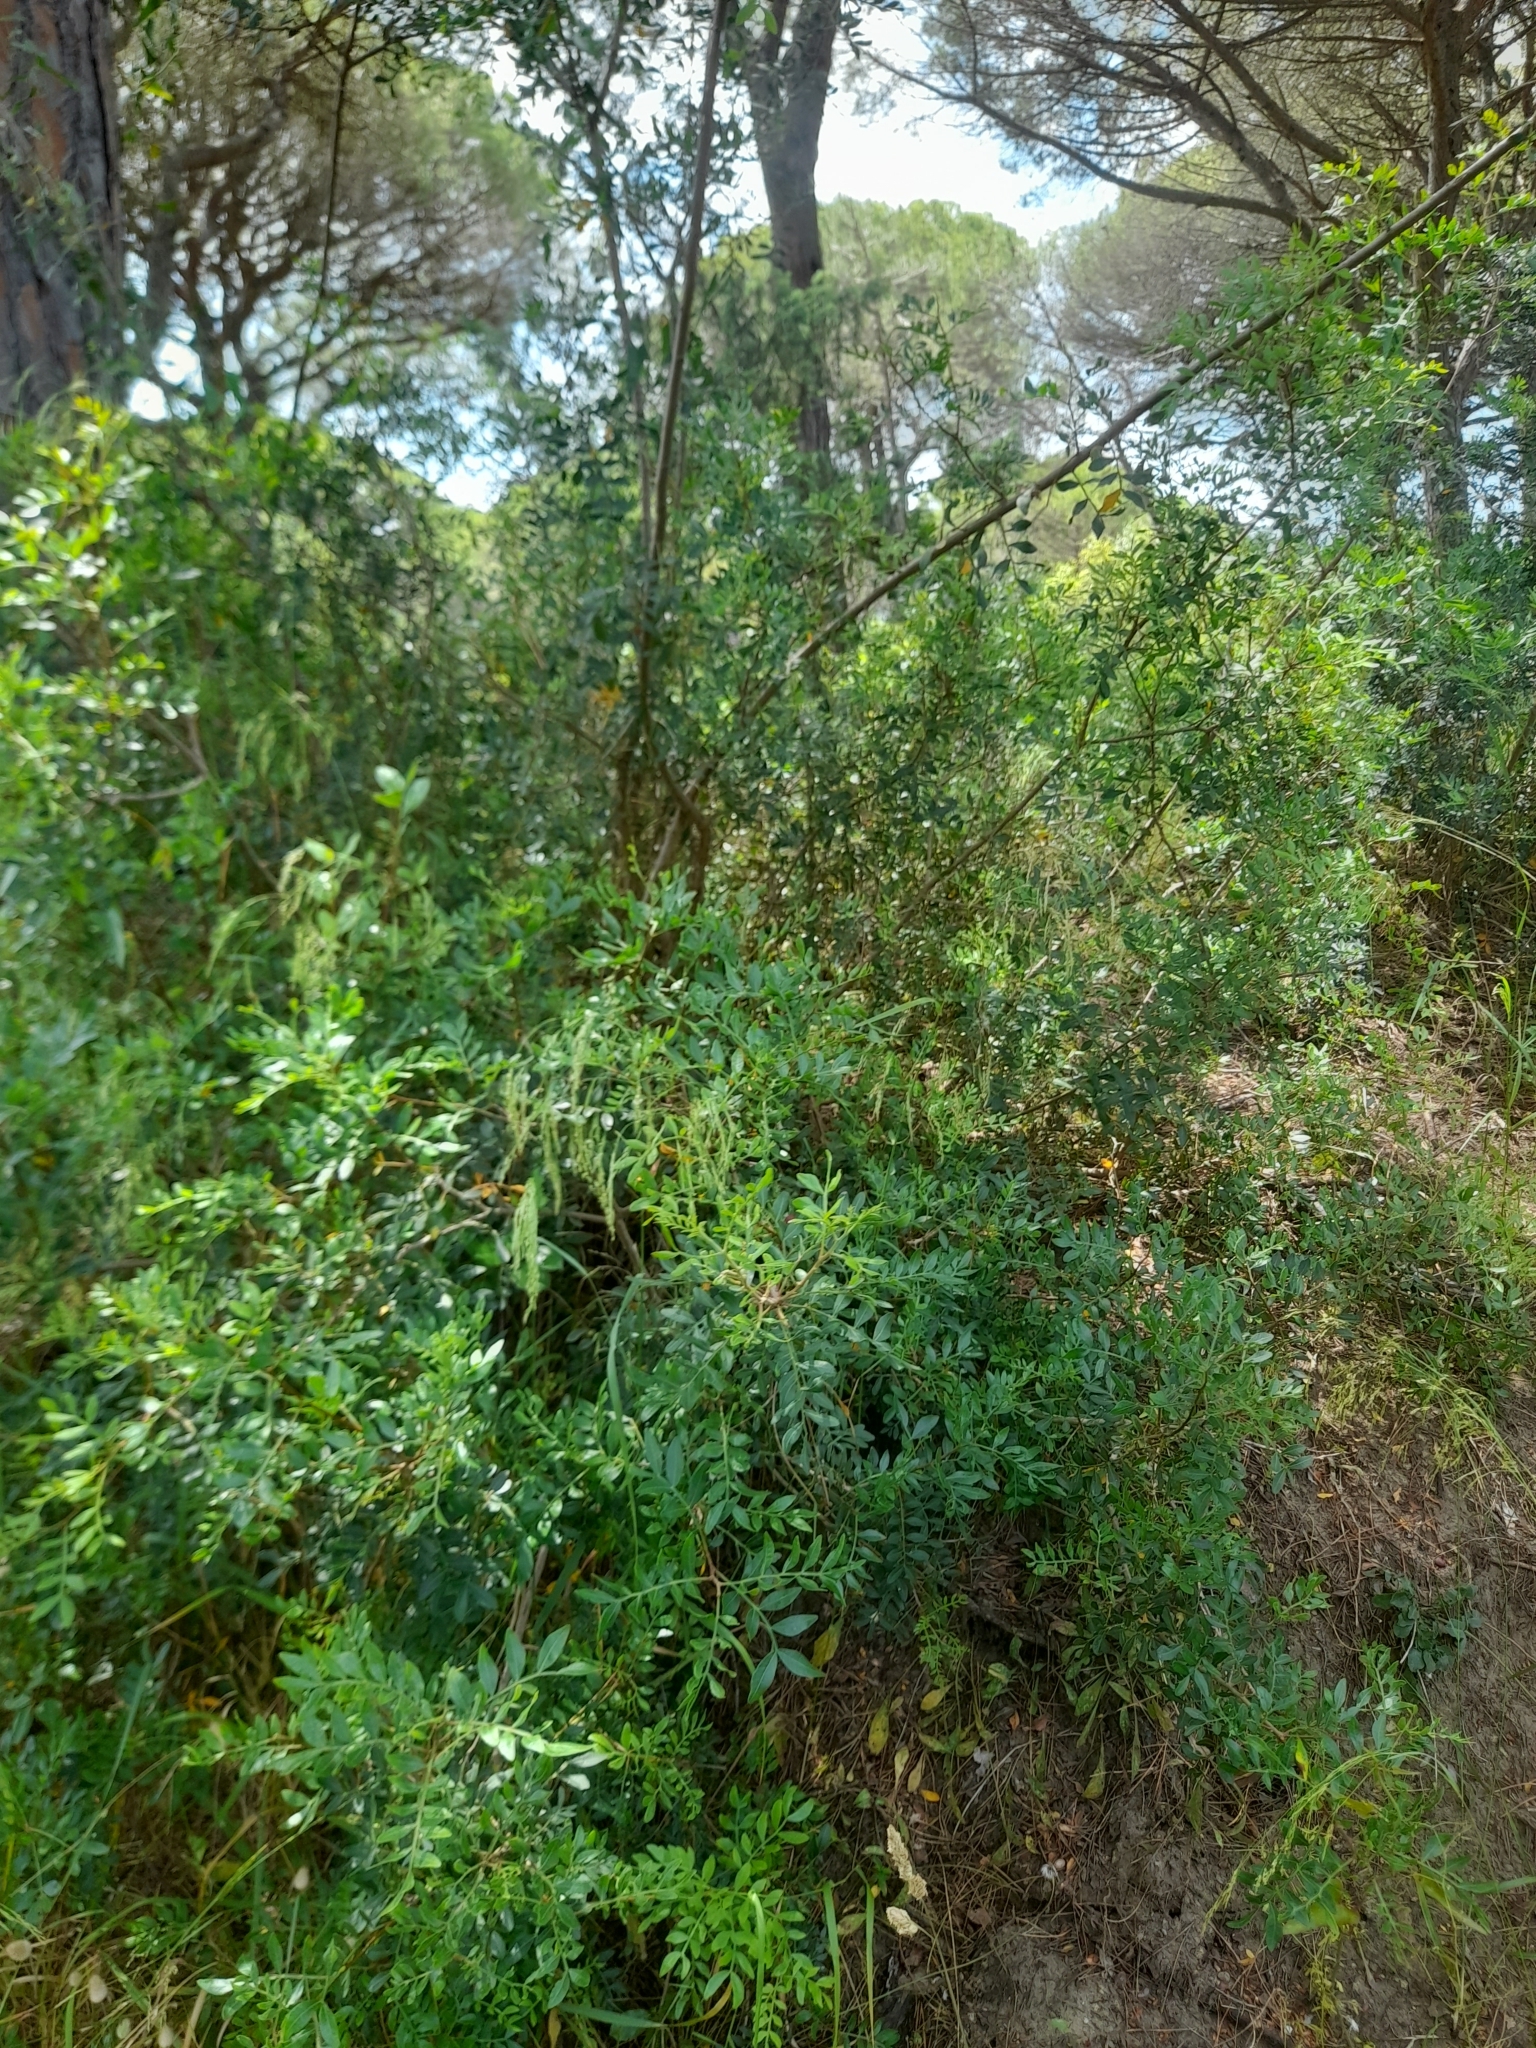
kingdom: Plantae
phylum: Tracheophyta
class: Magnoliopsida
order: Sapindales
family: Anacardiaceae
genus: Pistacia
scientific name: Pistacia lentiscus
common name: Lentisk
